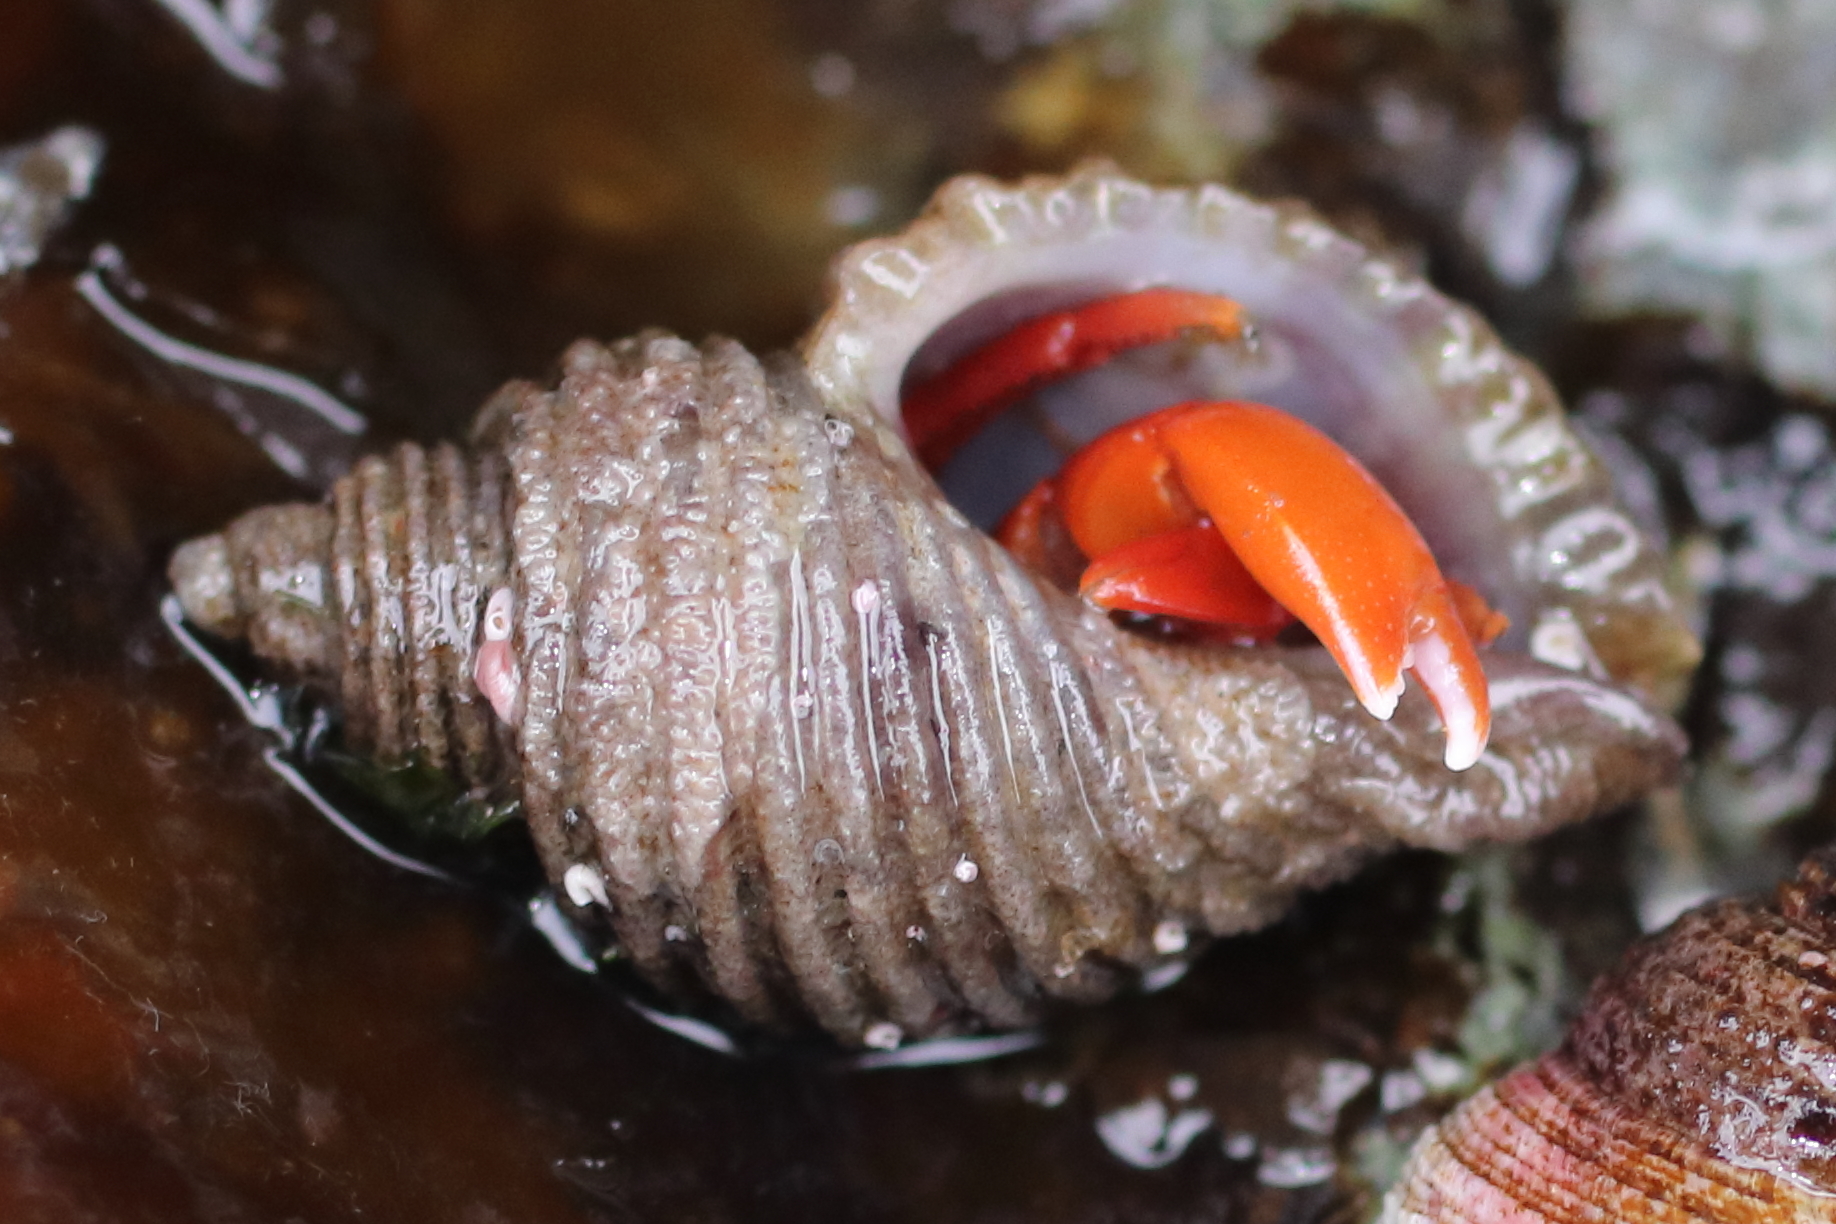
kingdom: Animalia
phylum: Arthropoda
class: Malacostraca
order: Decapoda
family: Paguridae
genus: Elassochirus
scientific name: Elassochirus gilli
